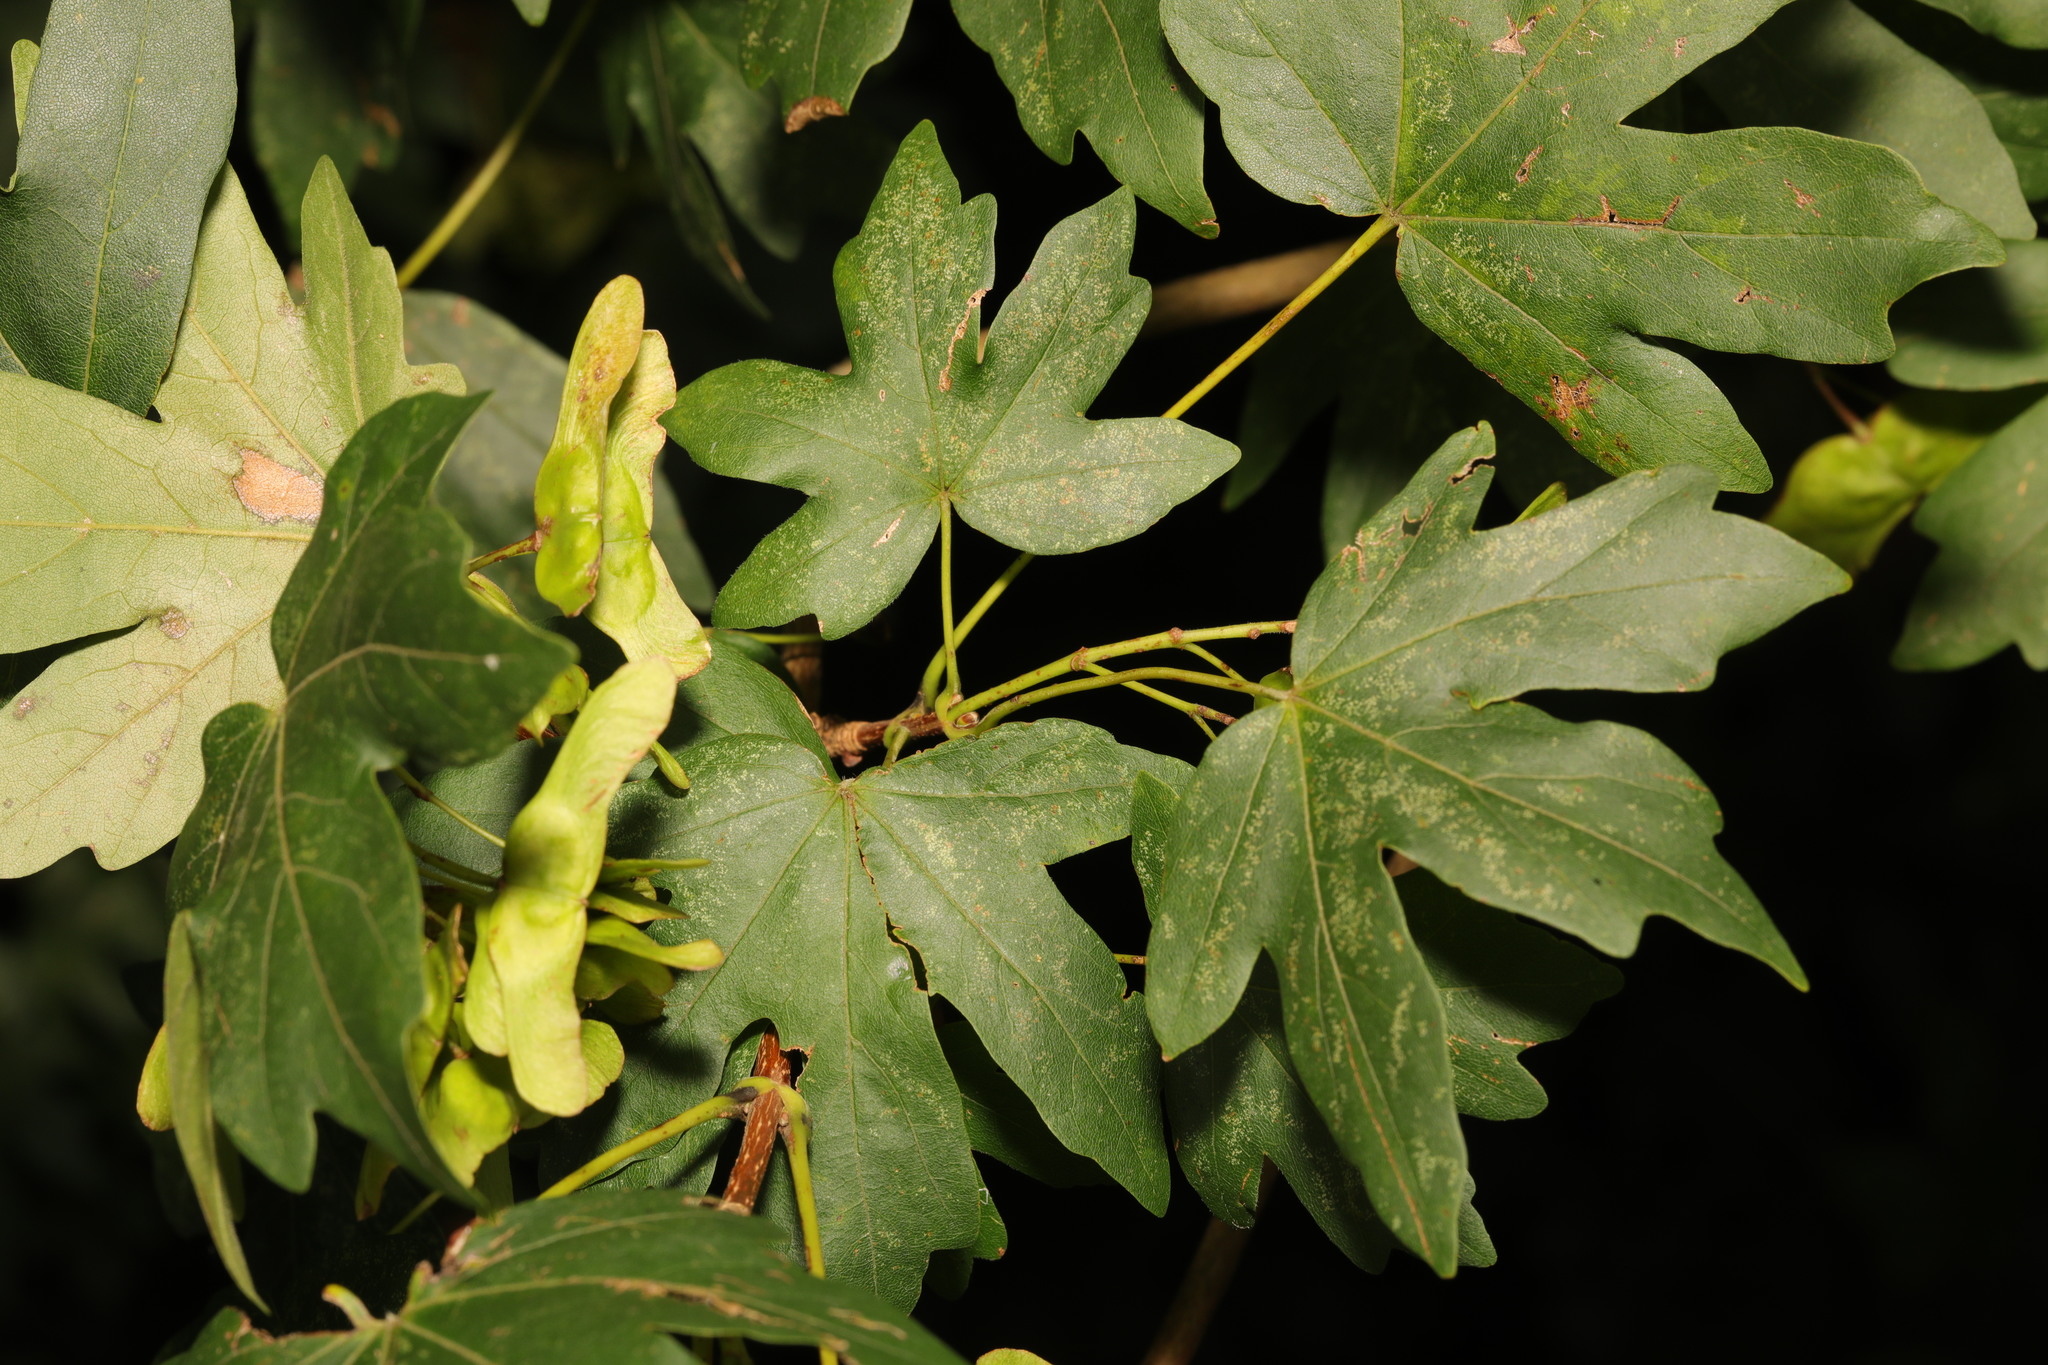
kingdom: Plantae
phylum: Tracheophyta
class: Magnoliopsida
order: Sapindales
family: Sapindaceae
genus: Acer
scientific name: Acer campestre
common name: Field maple
